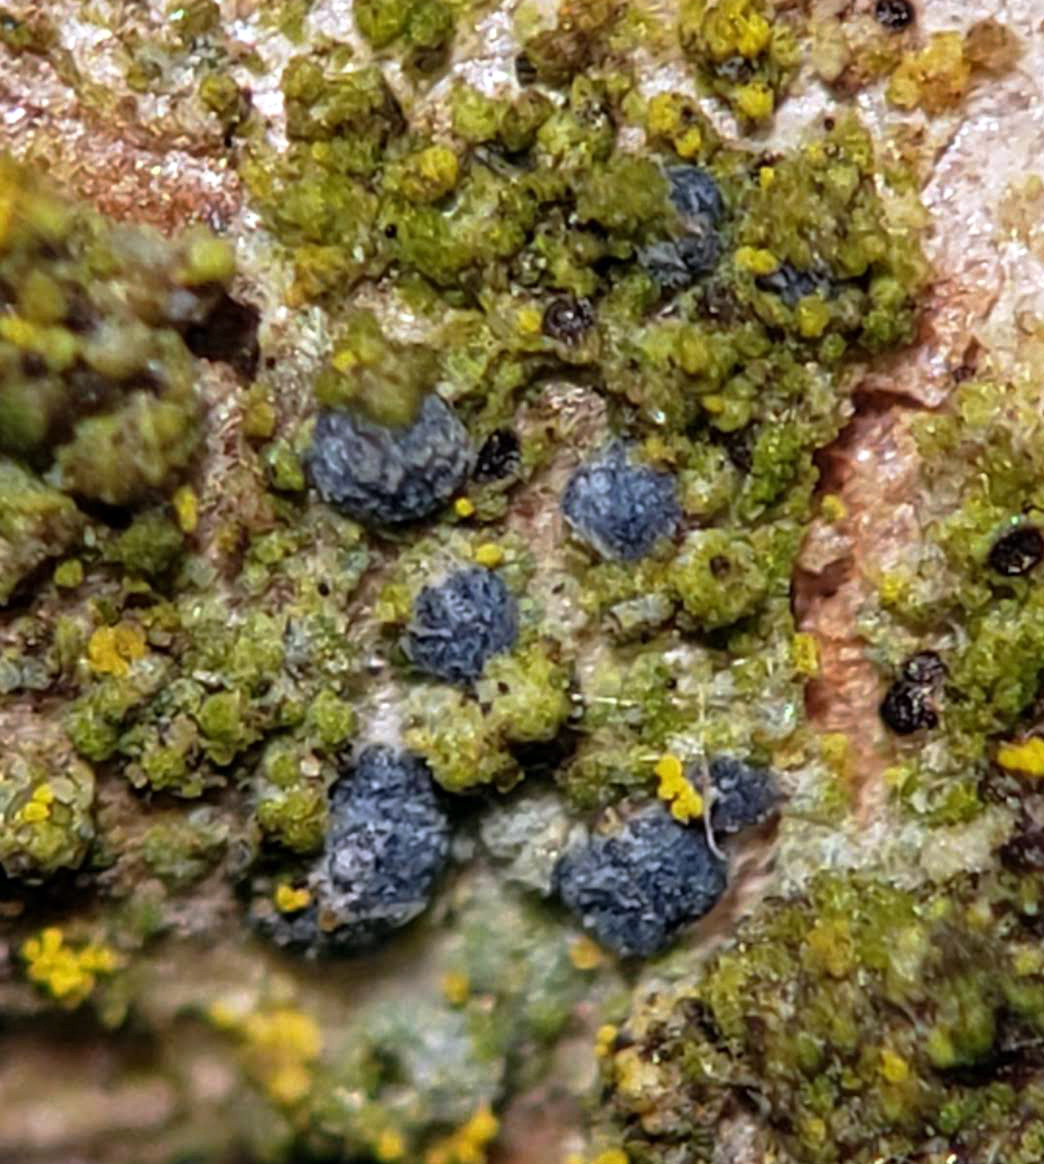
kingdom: Fungi
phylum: Ascomycota
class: Arthoniomycetes
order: Arthoniales
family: Chrysotrichaceae
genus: Chrysothrix
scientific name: Chrysothrix caesia
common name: Frosted comma lichen
